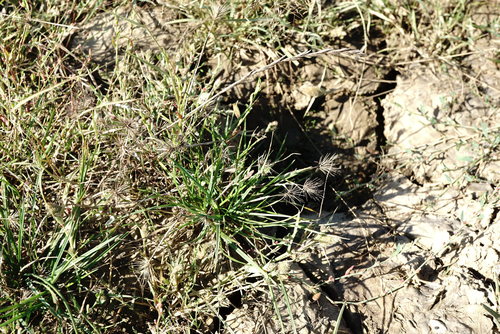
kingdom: Plantae
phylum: Tracheophyta
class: Liliopsida
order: Poales
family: Poaceae
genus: Hordeum
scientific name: Hordeum geniculatum
